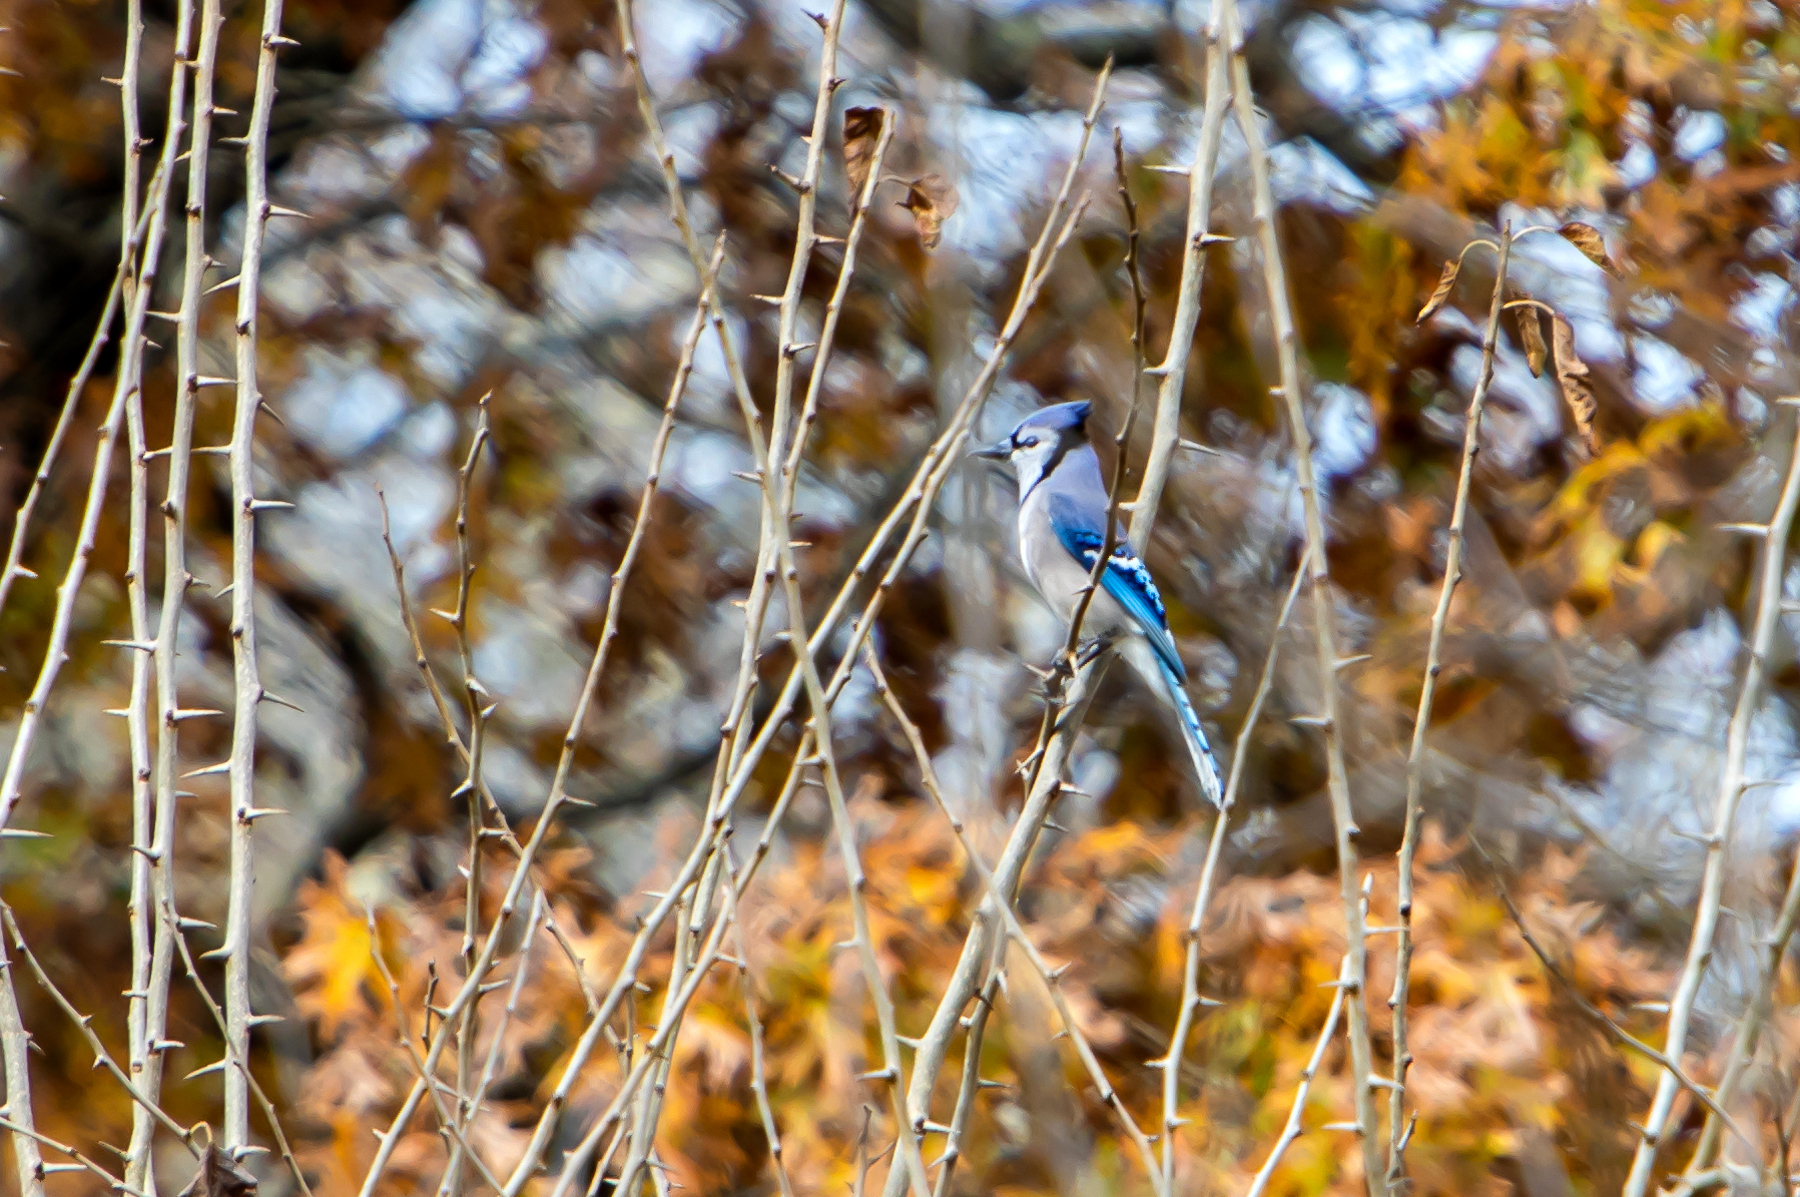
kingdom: Animalia
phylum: Chordata
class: Aves
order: Passeriformes
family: Corvidae
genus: Cyanocitta
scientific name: Cyanocitta cristata
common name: Blue jay
